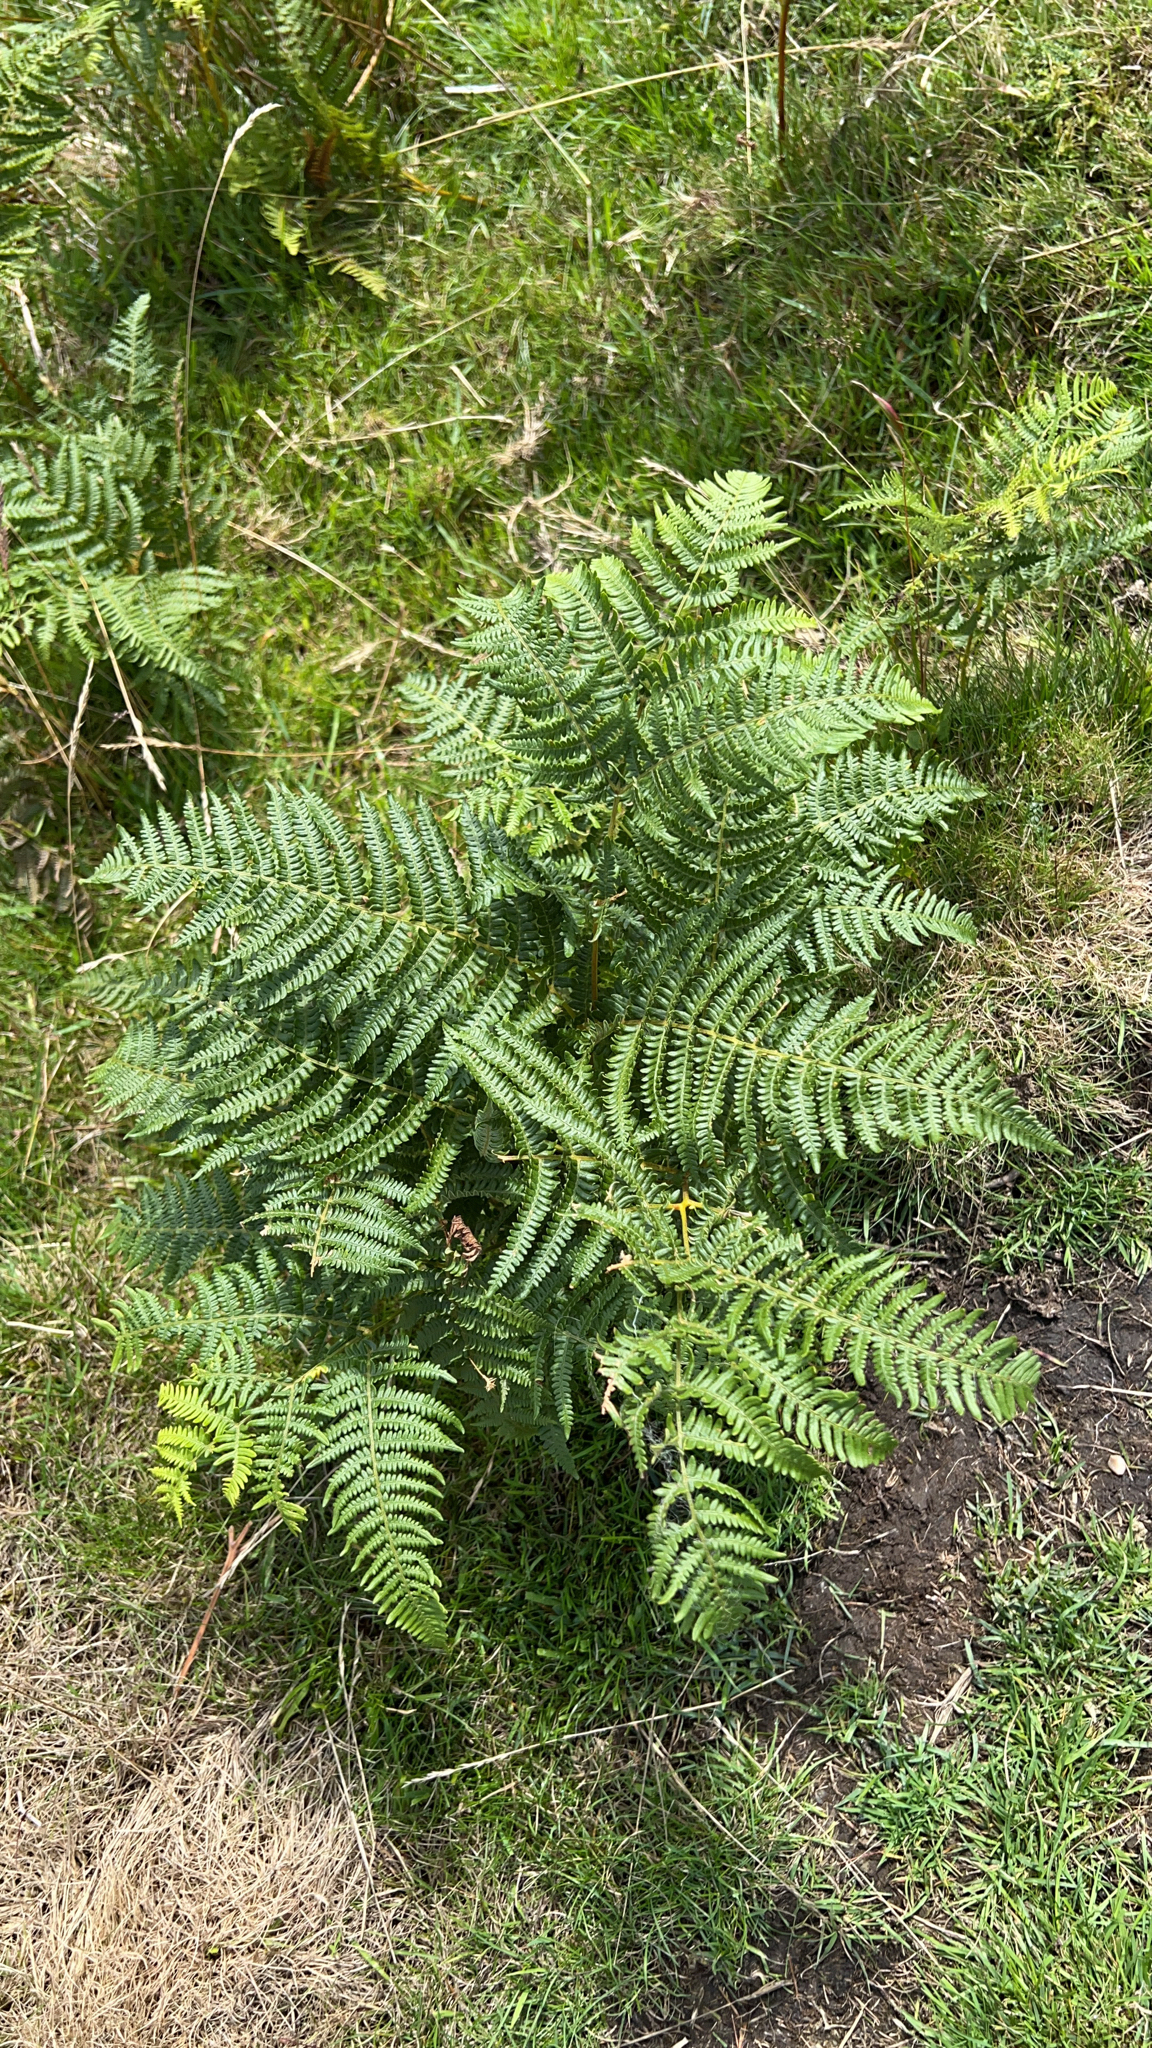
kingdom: Plantae
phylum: Tracheophyta
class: Polypodiopsida
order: Polypodiales
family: Dennstaedtiaceae
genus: Pteridium
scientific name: Pteridium aquilinum
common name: Bracken
